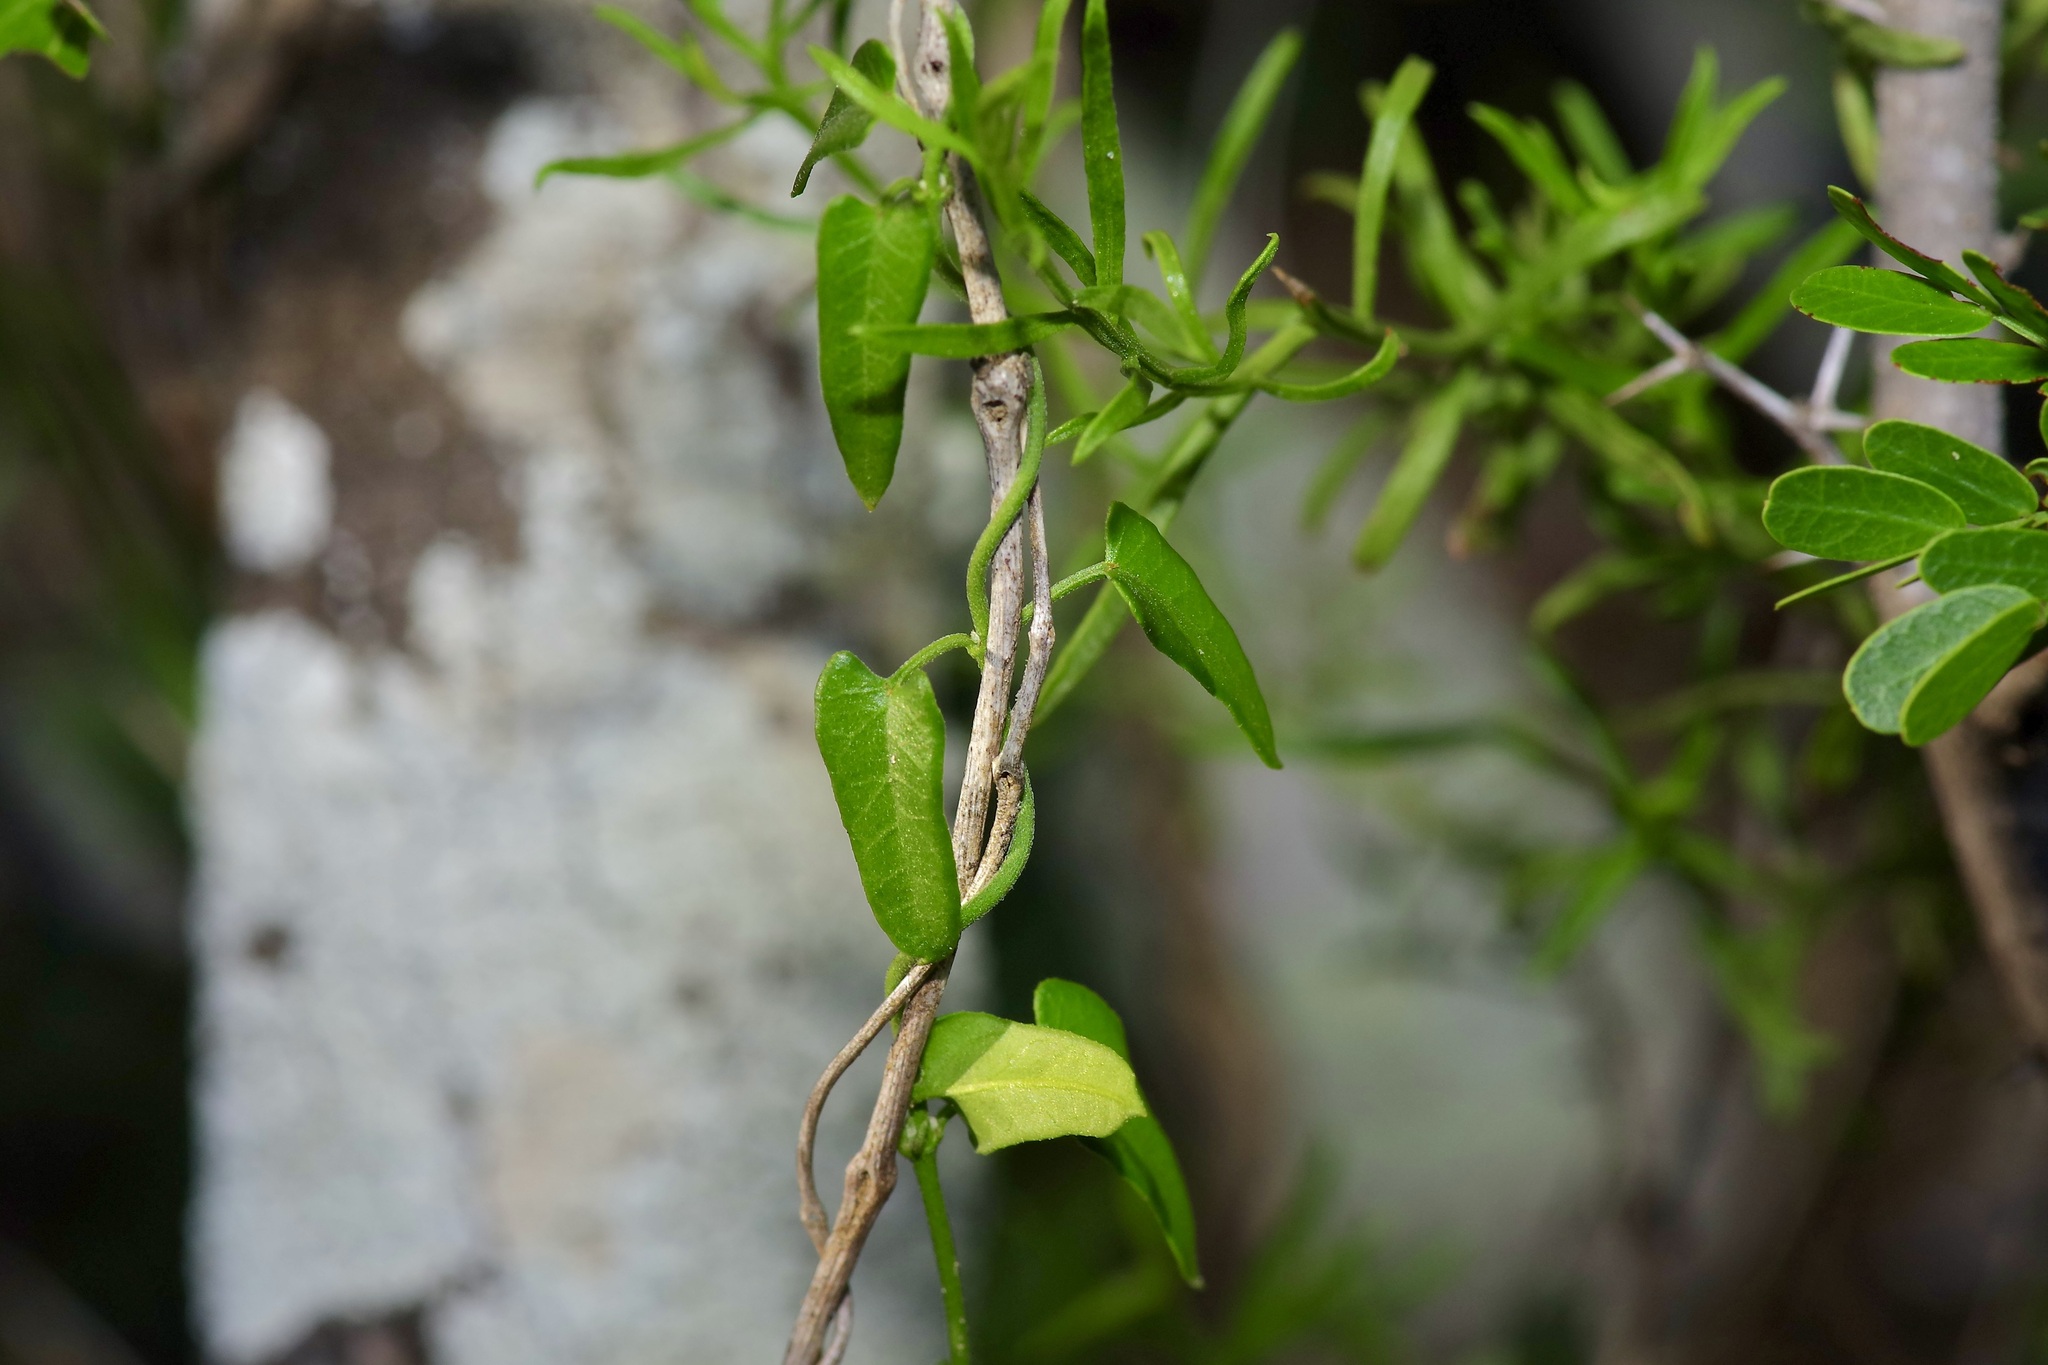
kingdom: Plantae
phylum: Tracheophyta
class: Magnoliopsida
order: Gentianales
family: Apocynaceae
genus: Matelea
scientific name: Matelea sagittifolia
